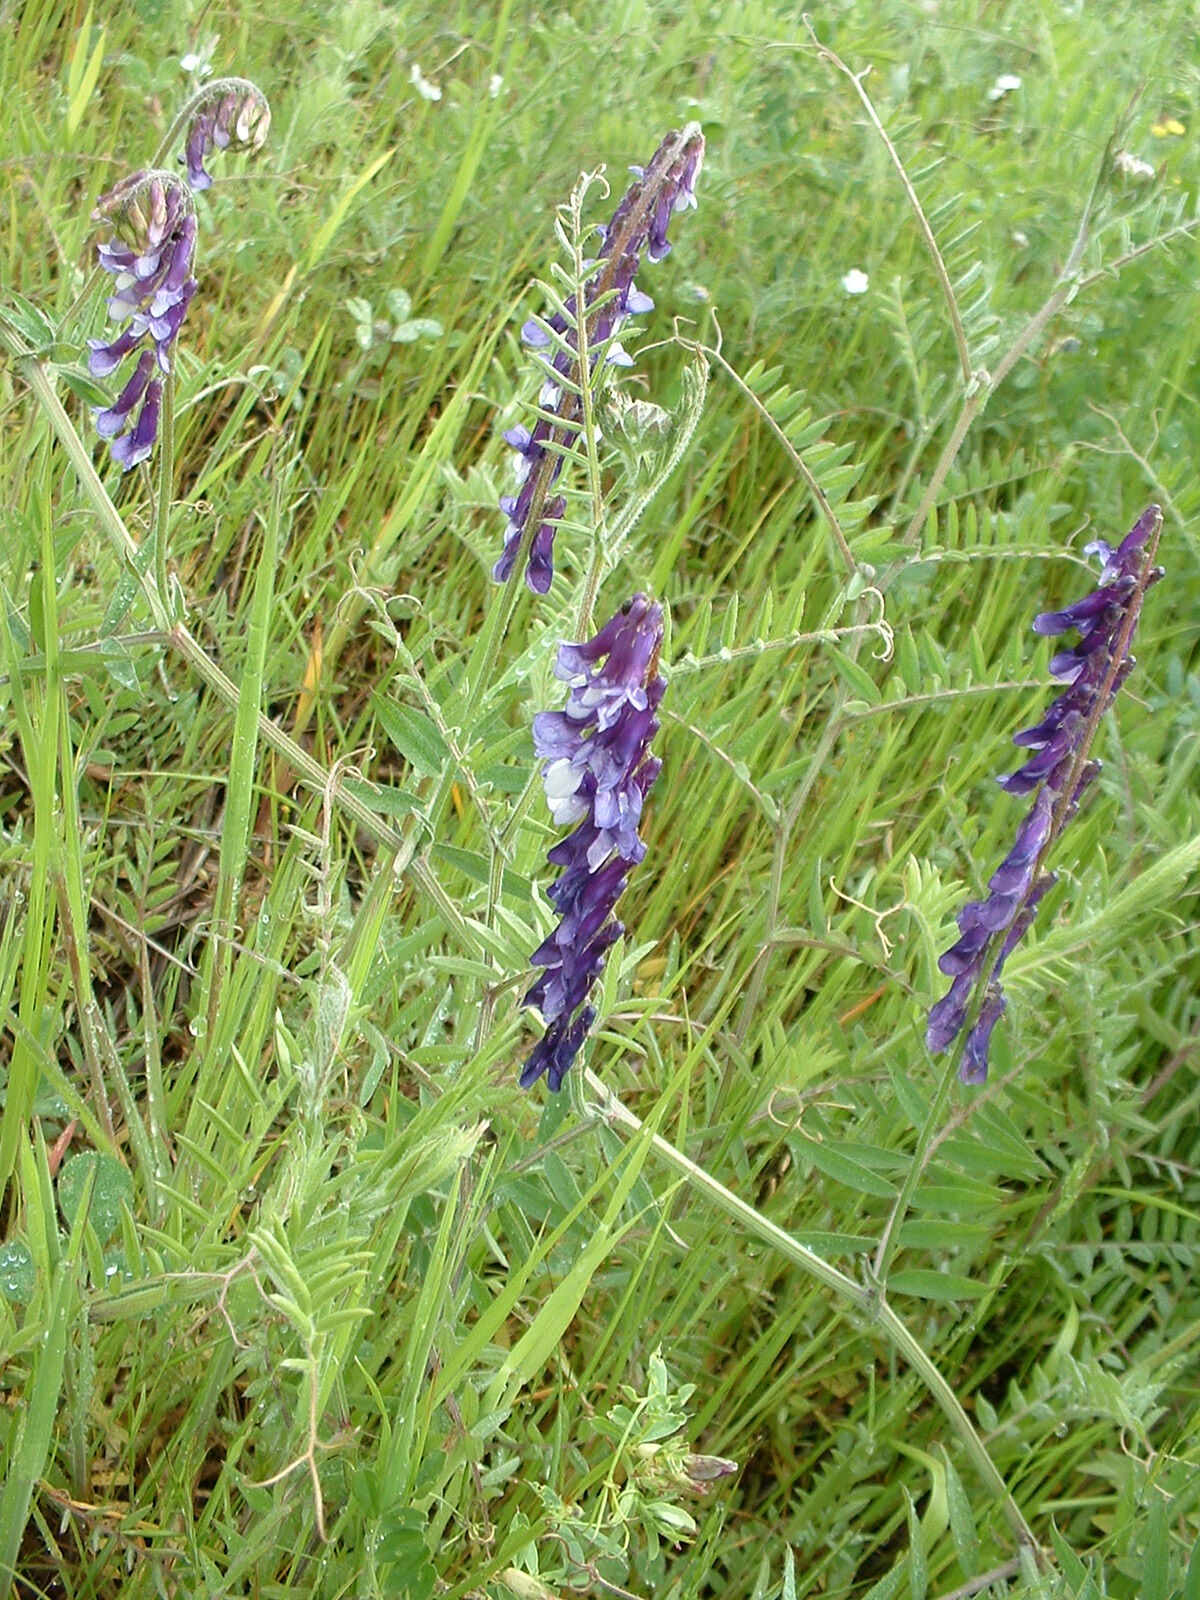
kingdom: Plantae
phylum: Tracheophyta
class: Magnoliopsida
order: Fabales
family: Fabaceae
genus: Vicia
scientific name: Vicia villosa
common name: Fodder vetch
